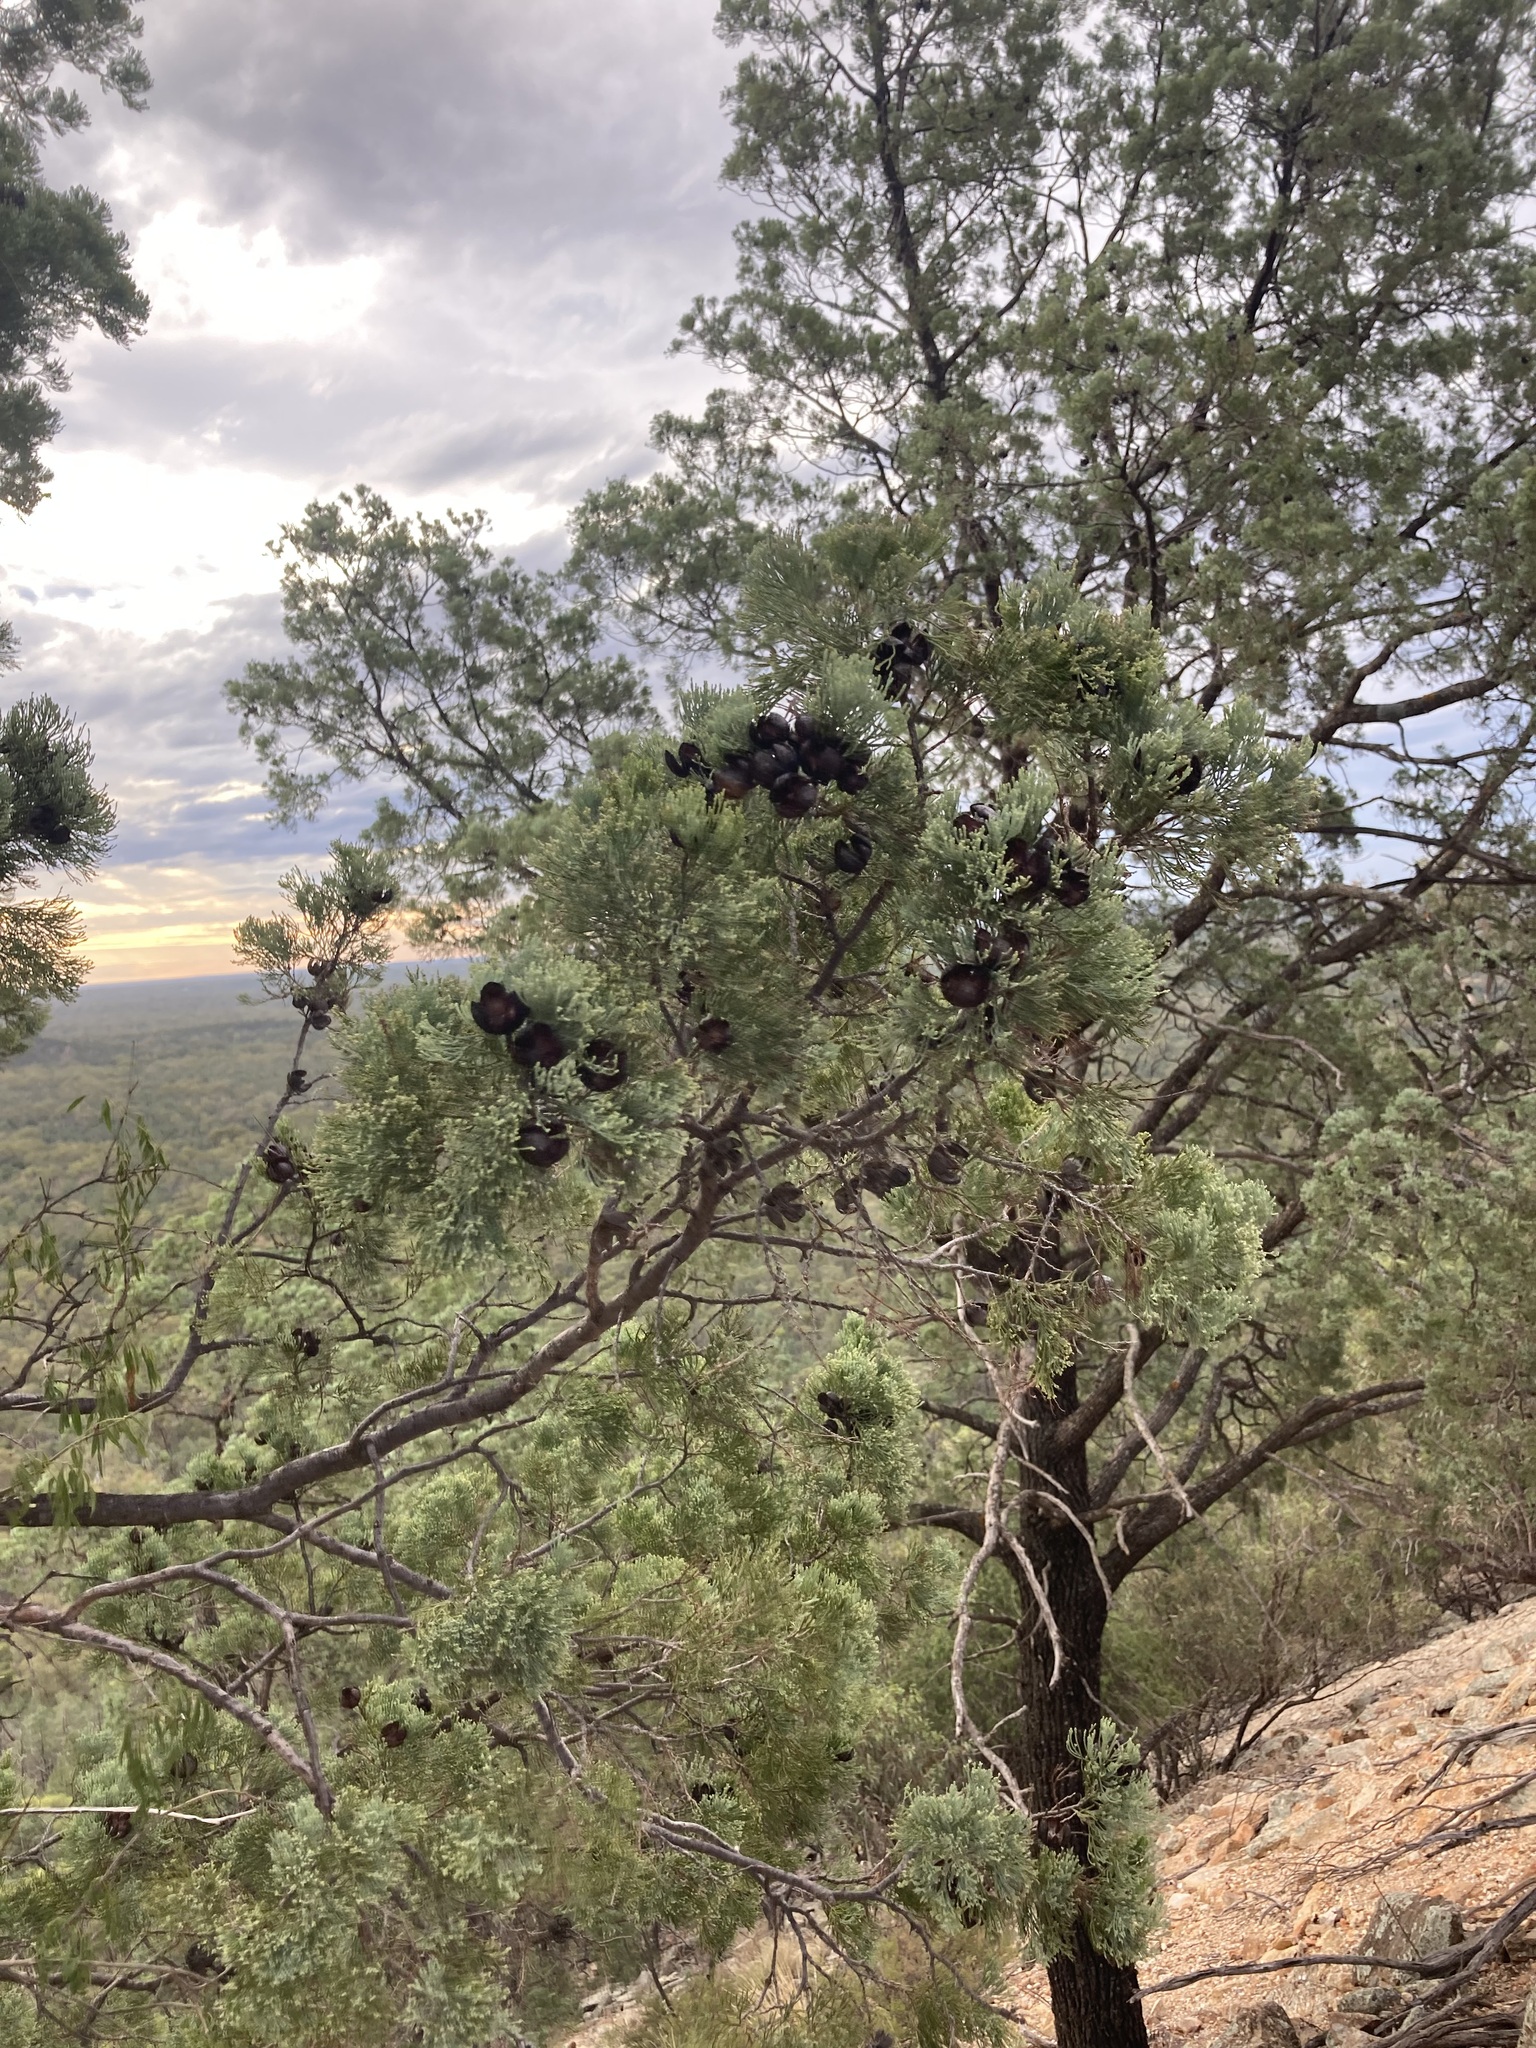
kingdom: Plantae
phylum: Tracheophyta
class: Pinopsida
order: Pinales
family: Cupressaceae
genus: Callitris
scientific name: Callitris columellaris
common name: White cypress-pine
